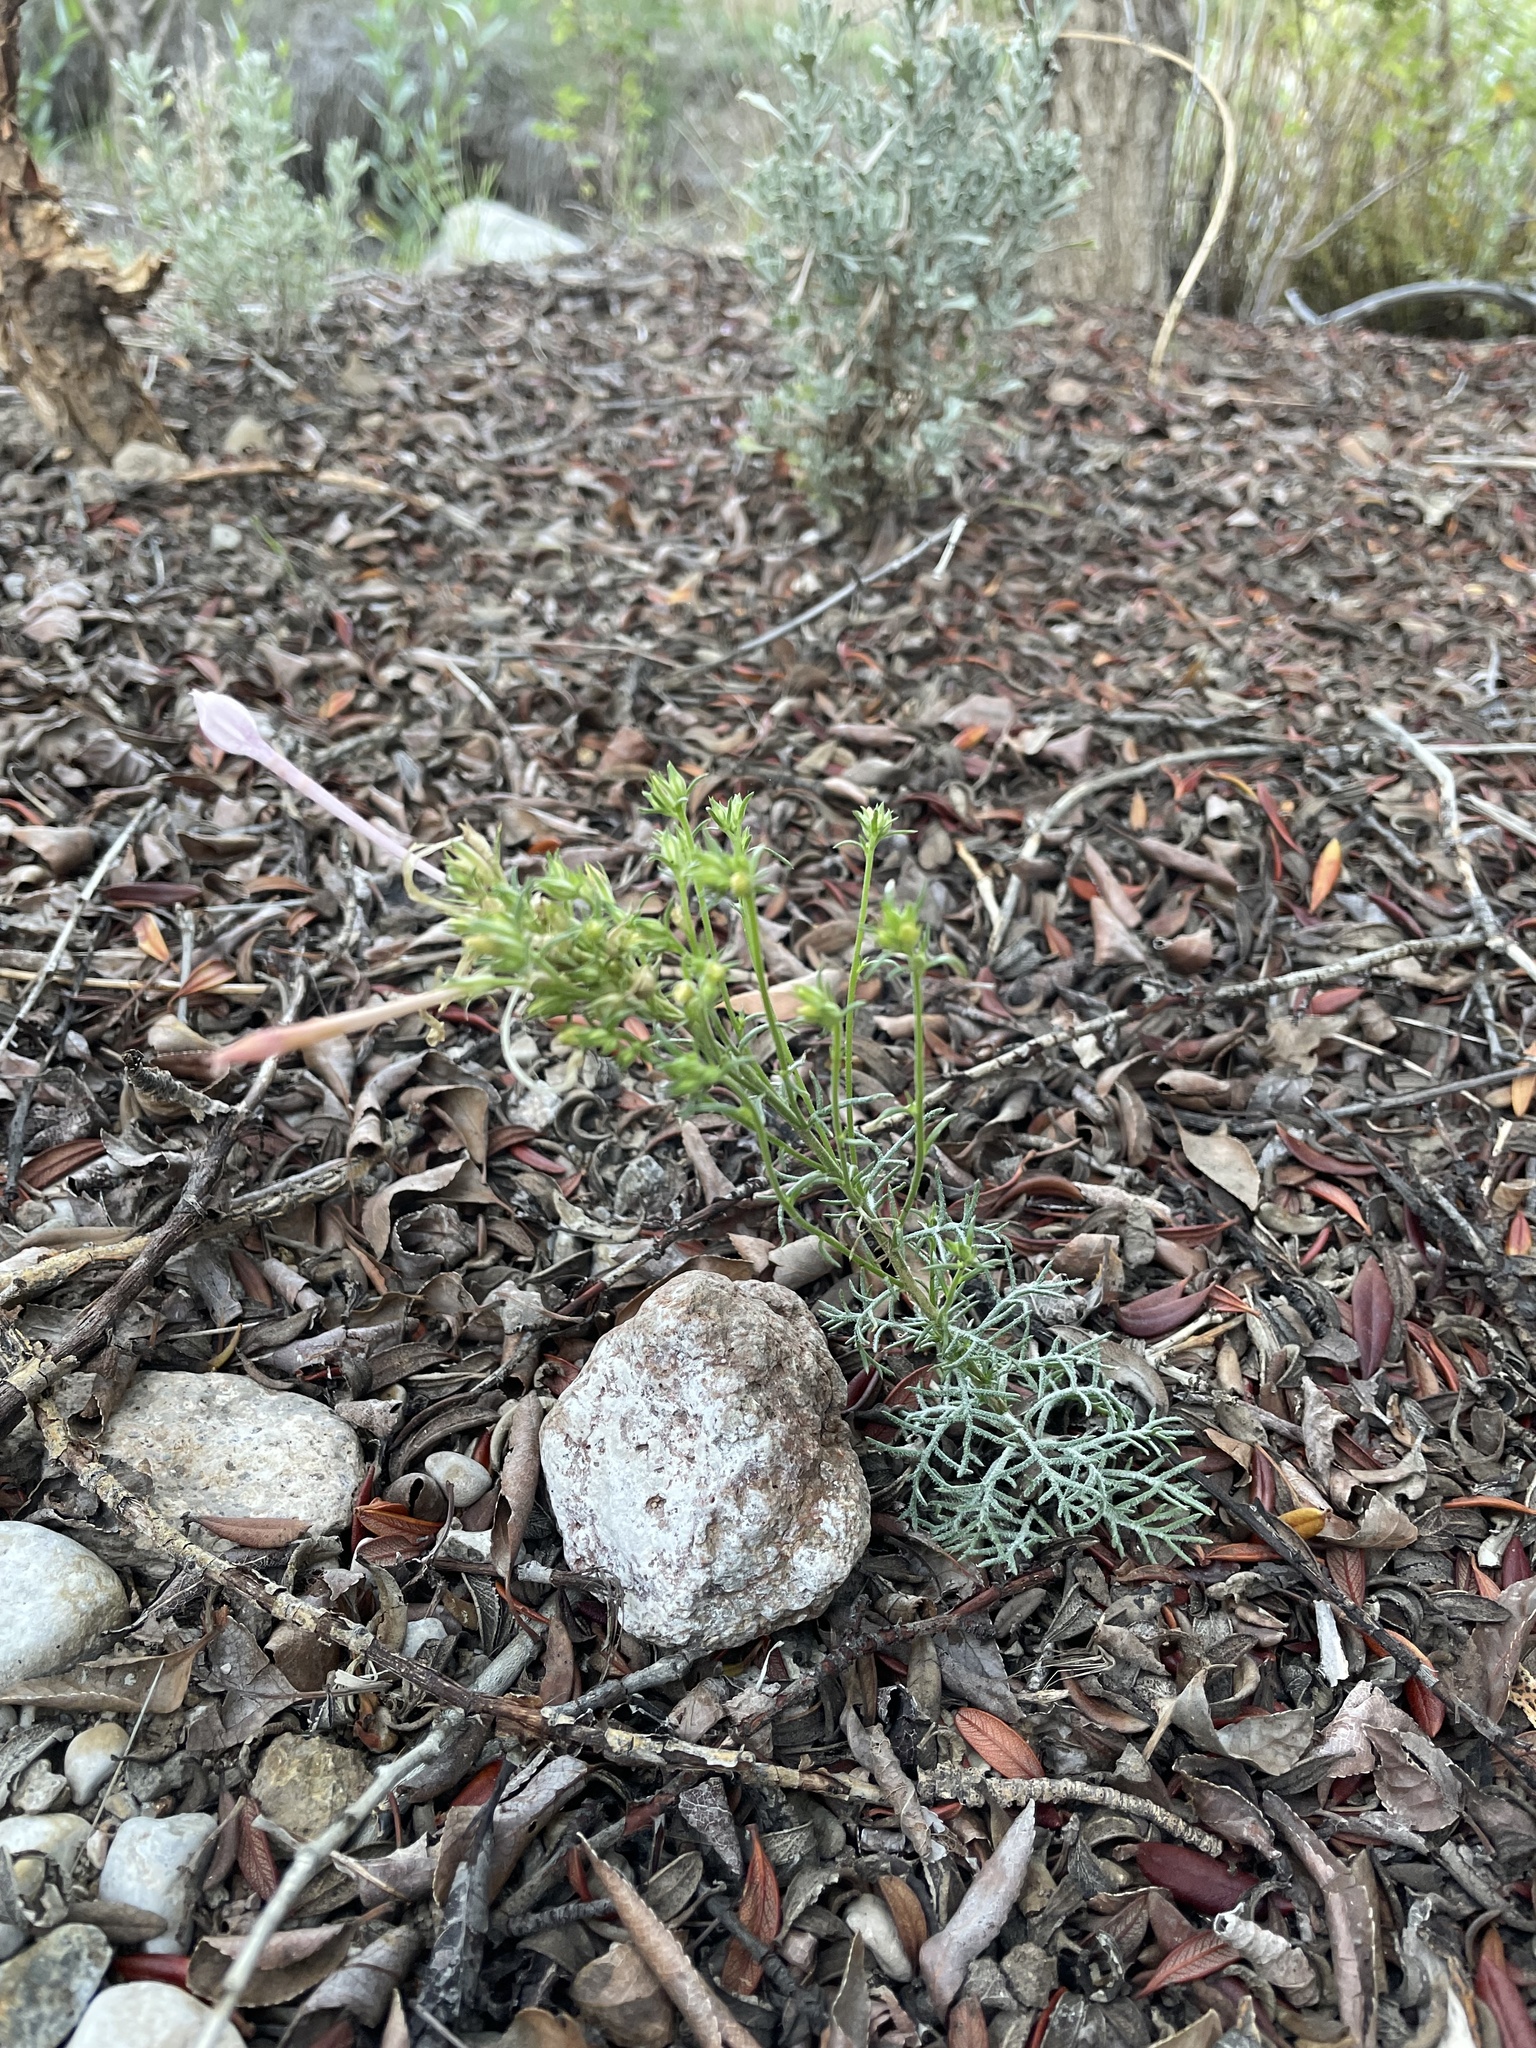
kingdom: Plantae
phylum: Tracheophyta
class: Magnoliopsida
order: Ericales
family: Polemoniaceae
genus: Ipomopsis
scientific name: Ipomopsis tenuituba
